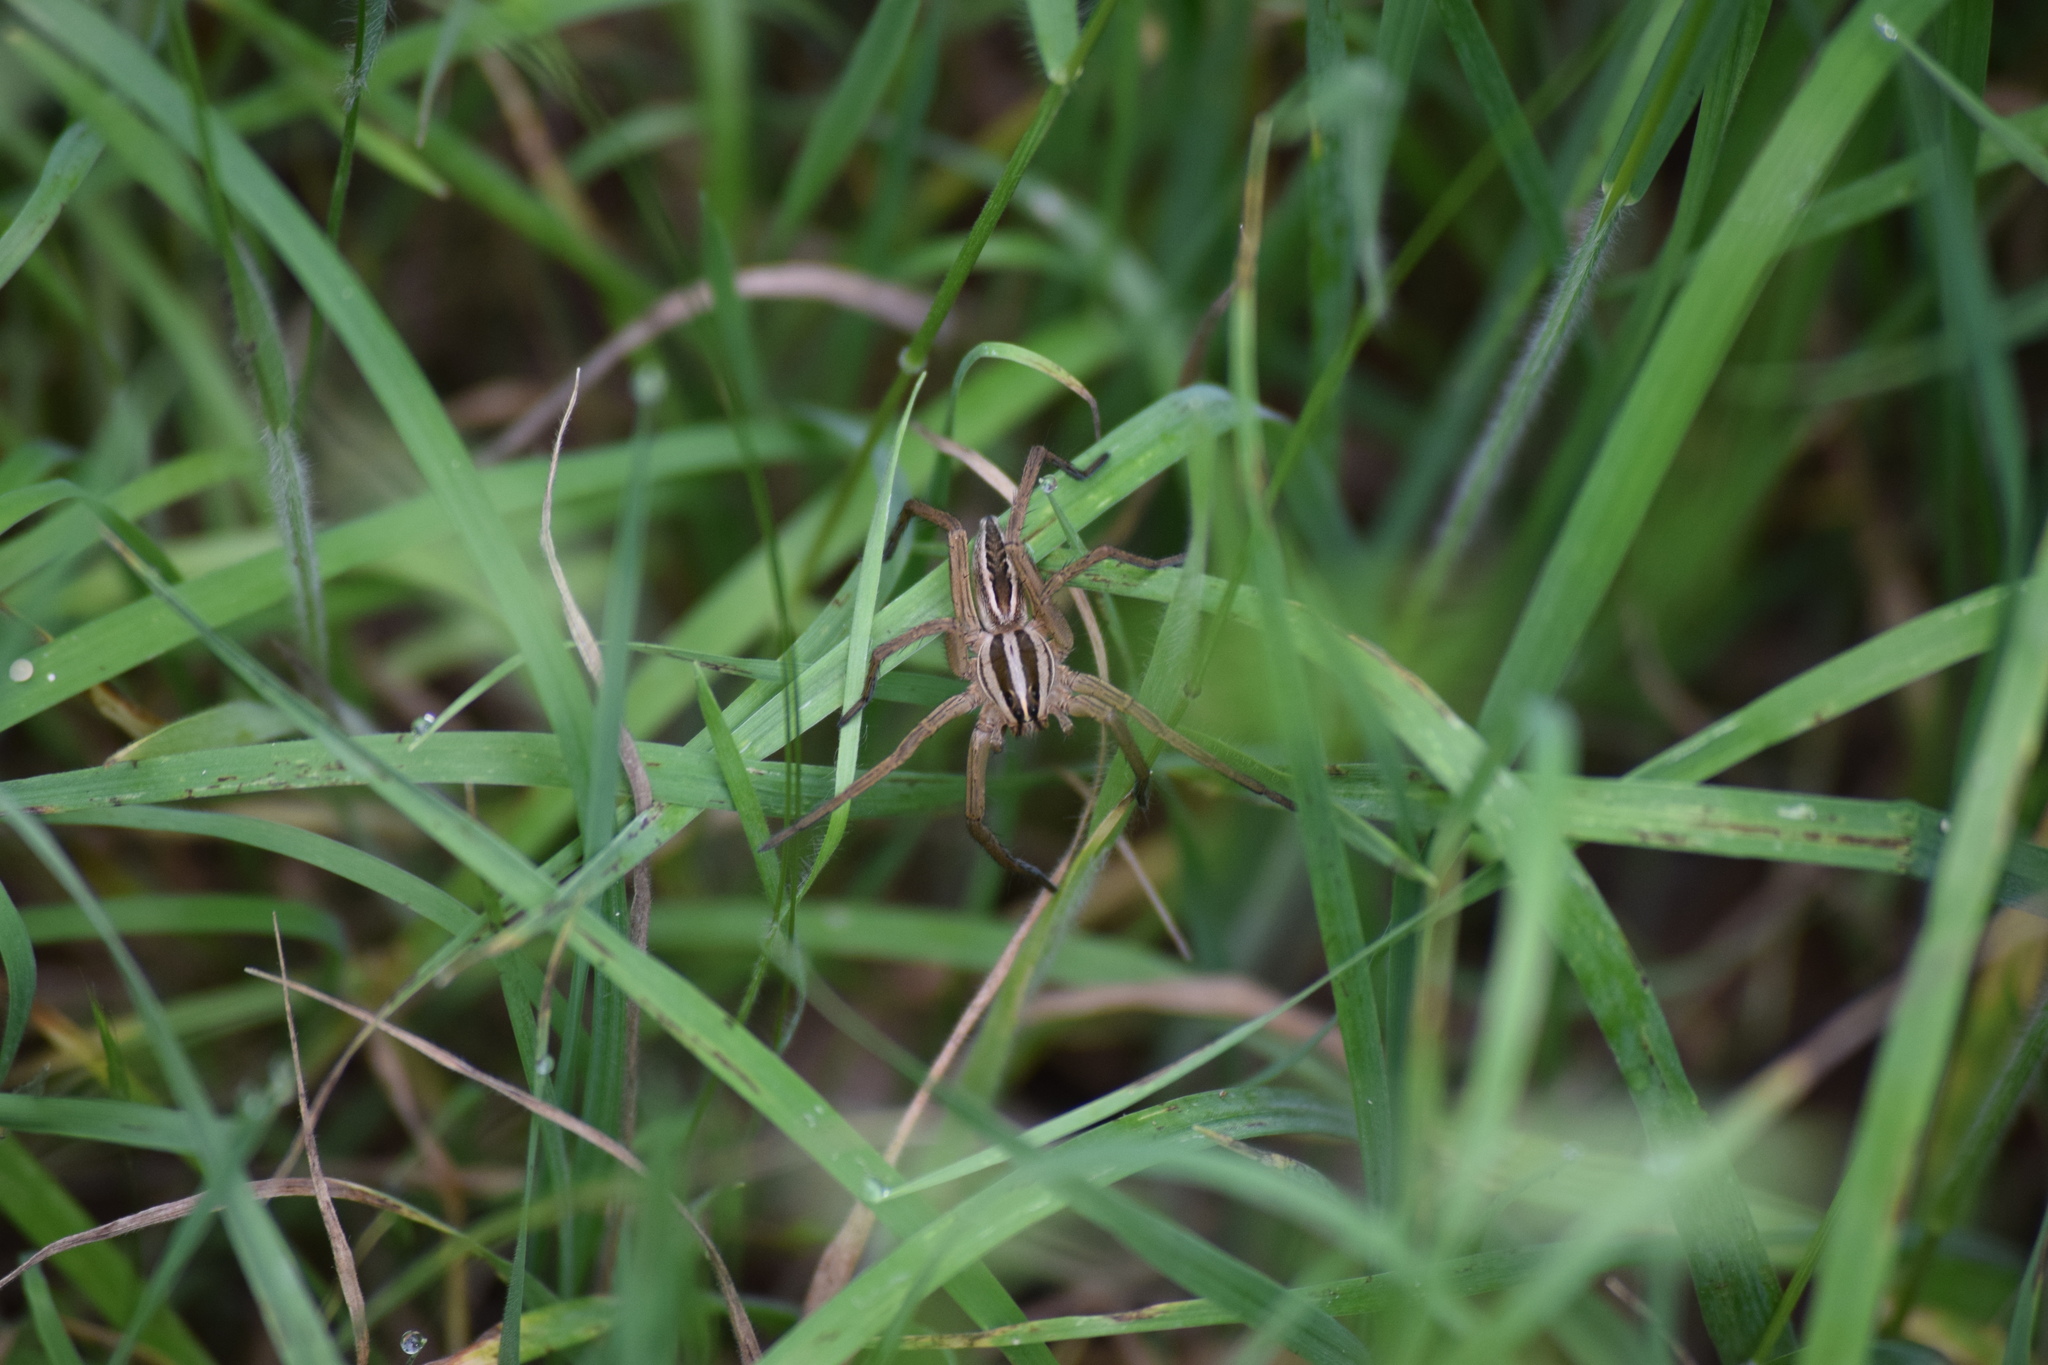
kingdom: Animalia
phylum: Arthropoda
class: Arachnida
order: Araneae
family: Lycosidae
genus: Rabidosa
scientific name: Rabidosa rabida
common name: Rabid wolf spider
